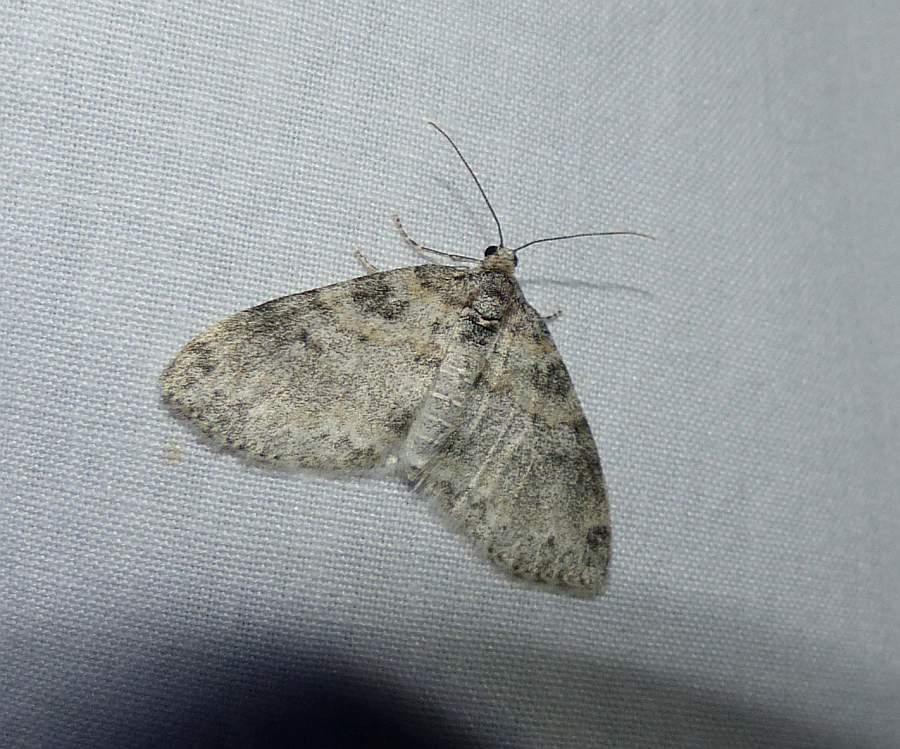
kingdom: Animalia
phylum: Arthropoda
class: Insecta
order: Lepidoptera
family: Geometridae
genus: Lobophora
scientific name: Lobophora nivigerata
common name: Powdered bigwing
